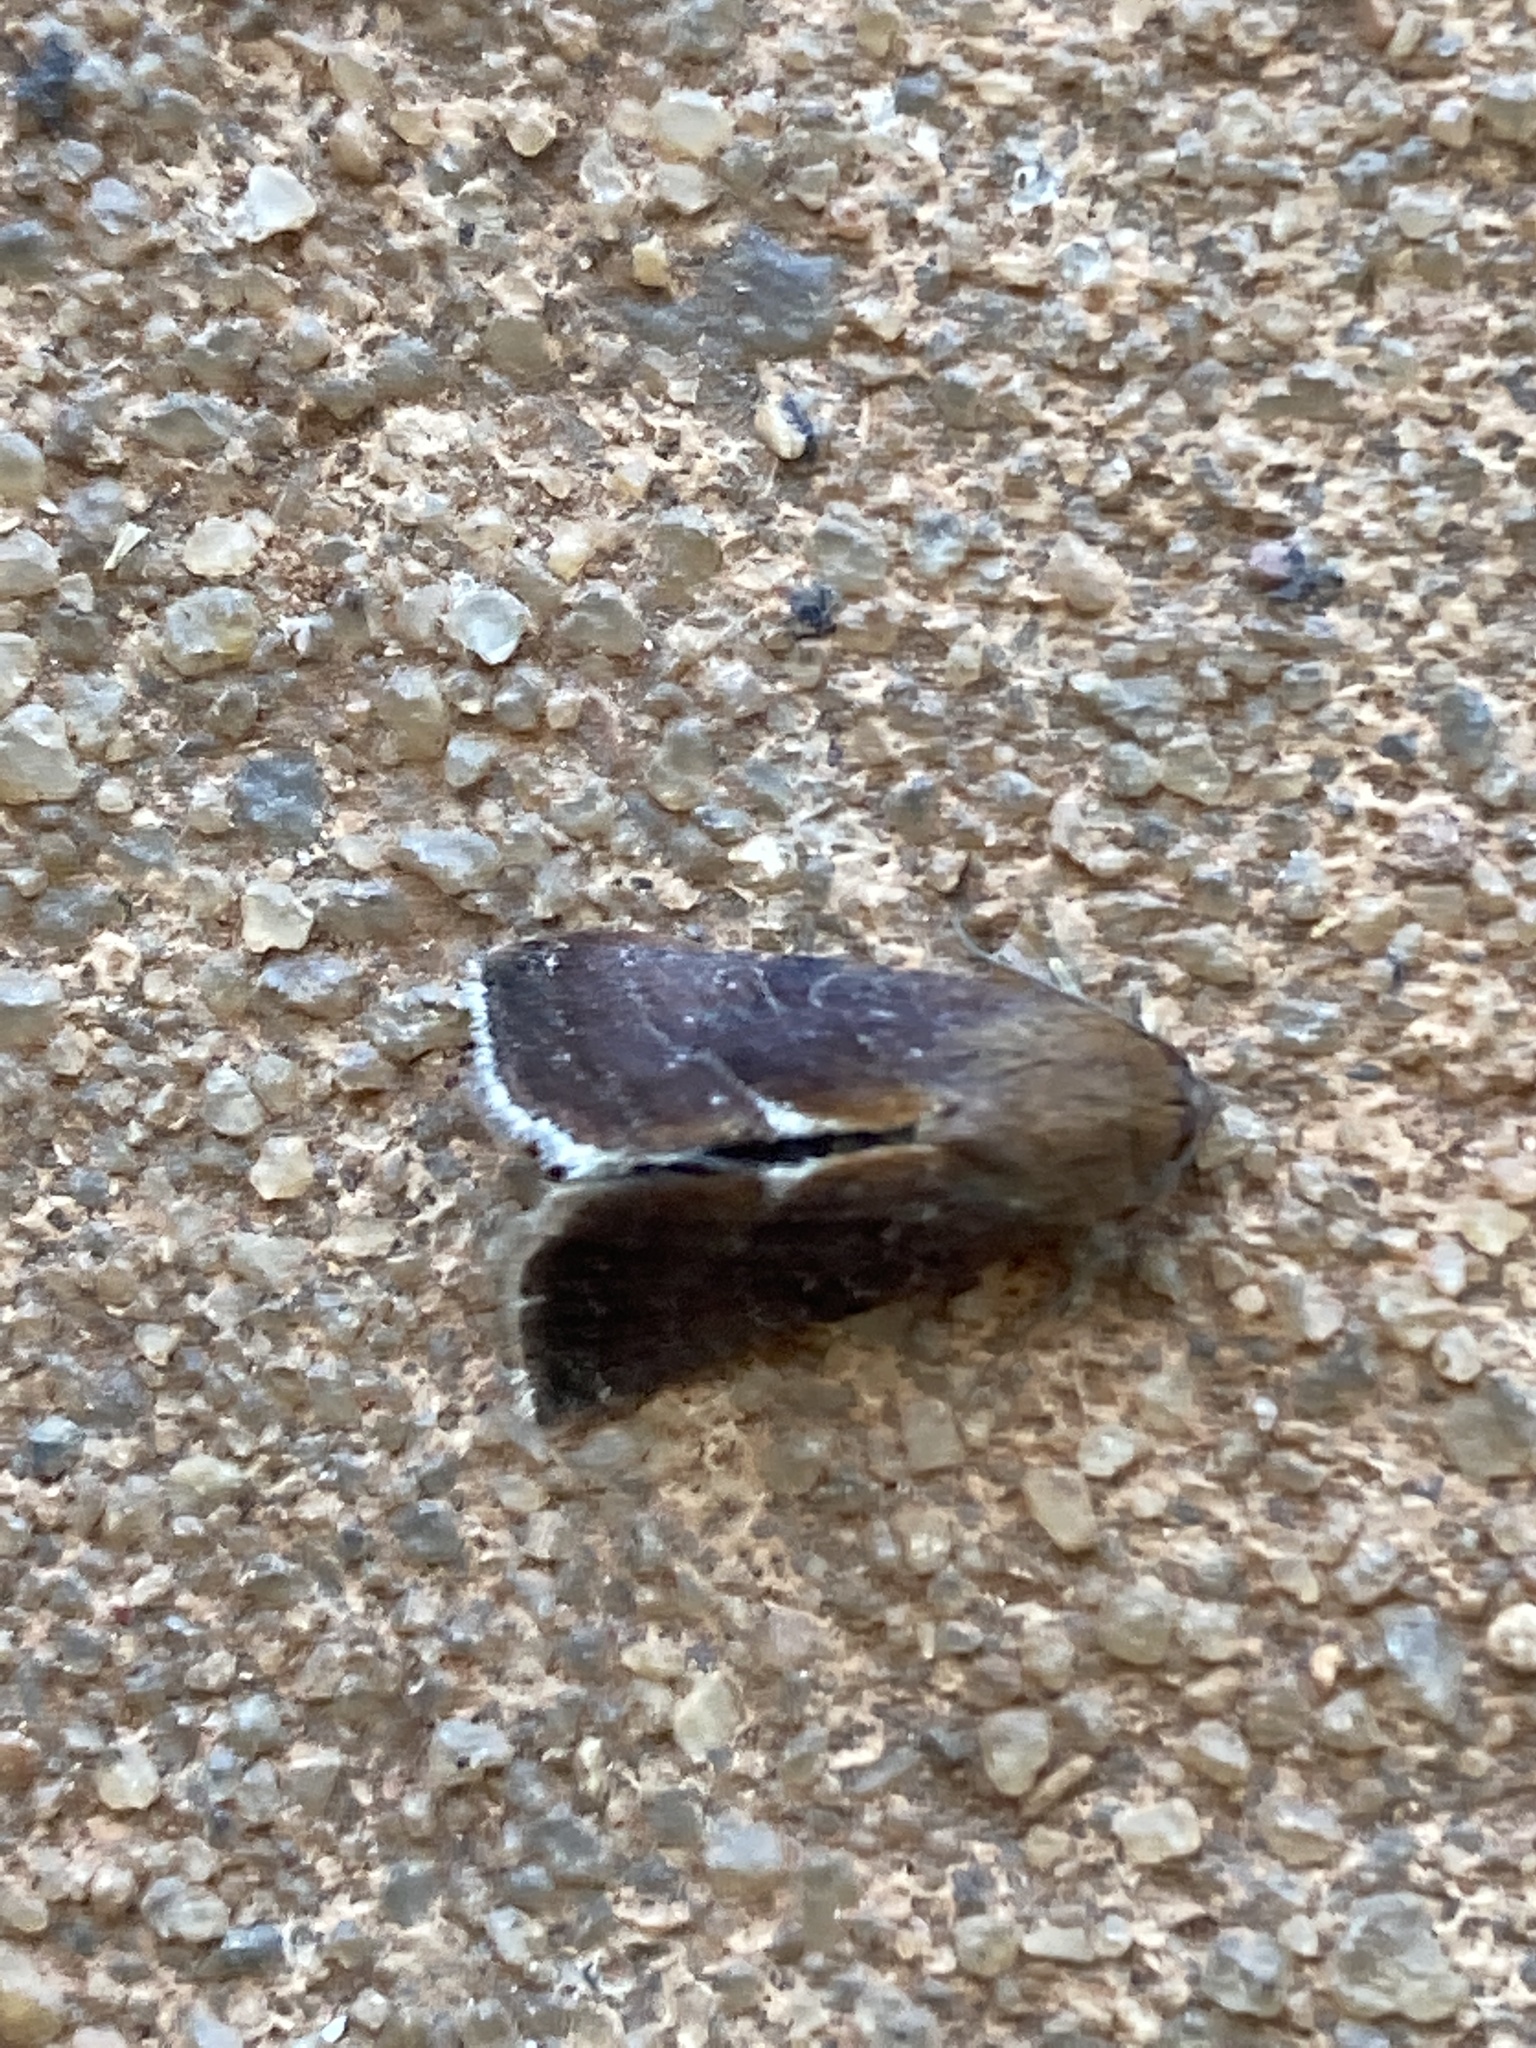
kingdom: Animalia
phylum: Arthropoda
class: Insecta
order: Lepidoptera
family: Noctuidae
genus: Galgula
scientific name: Galgula partita
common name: Wedgeling
